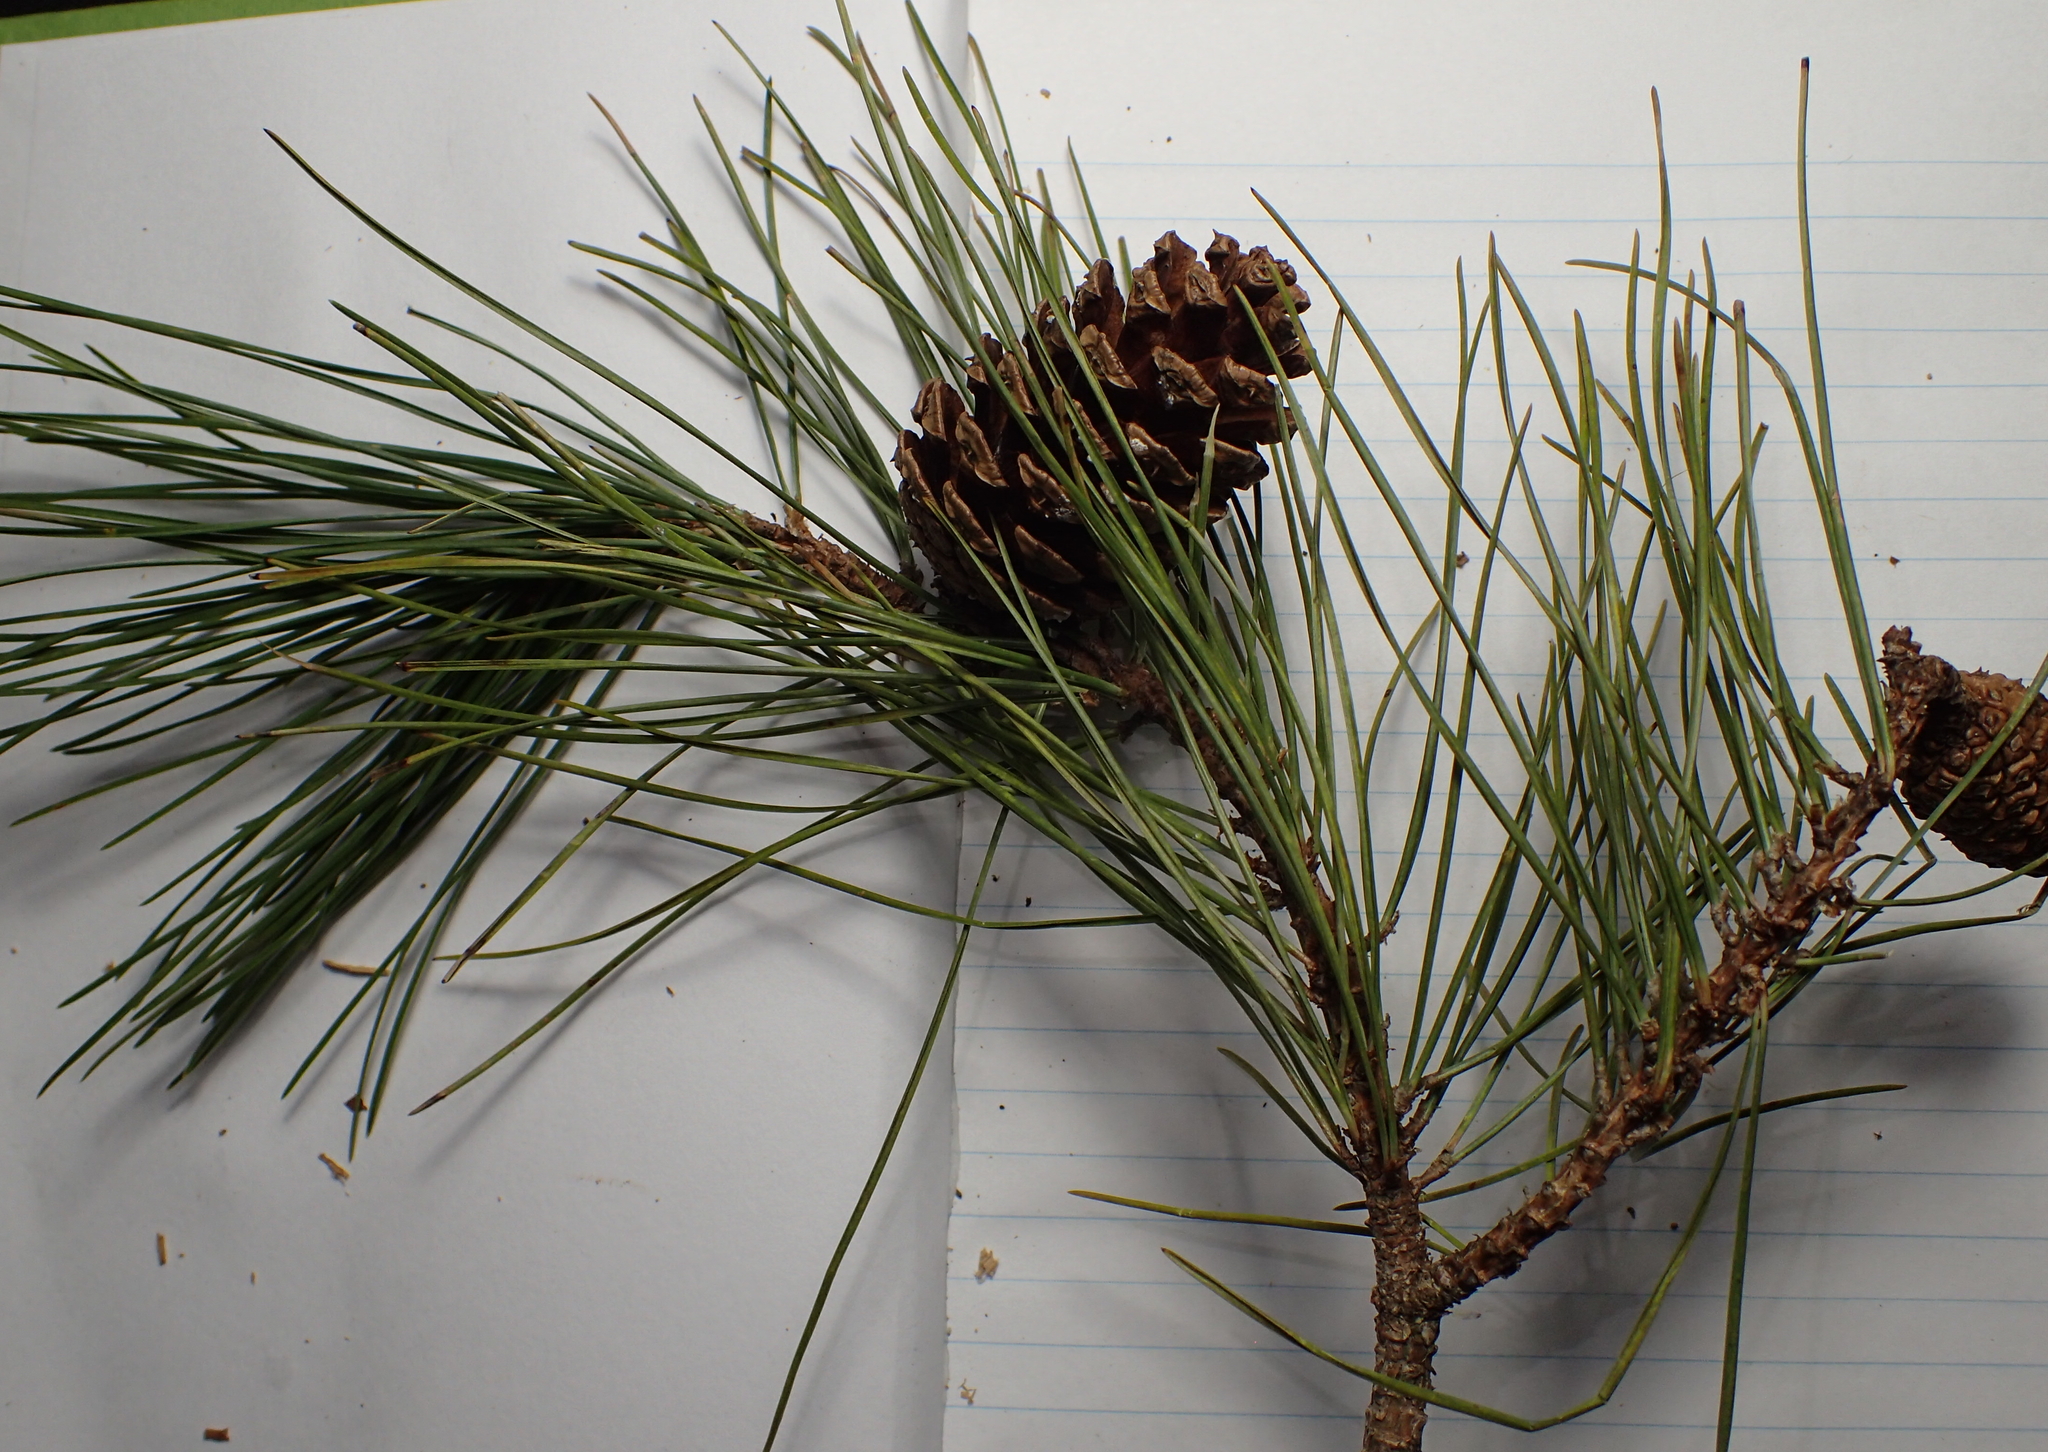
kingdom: Plantae
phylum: Tracheophyta
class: Pinopsida
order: Pinales
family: Pinaceae
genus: Pinus
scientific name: Pinus echinata
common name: Shortleaf pine
